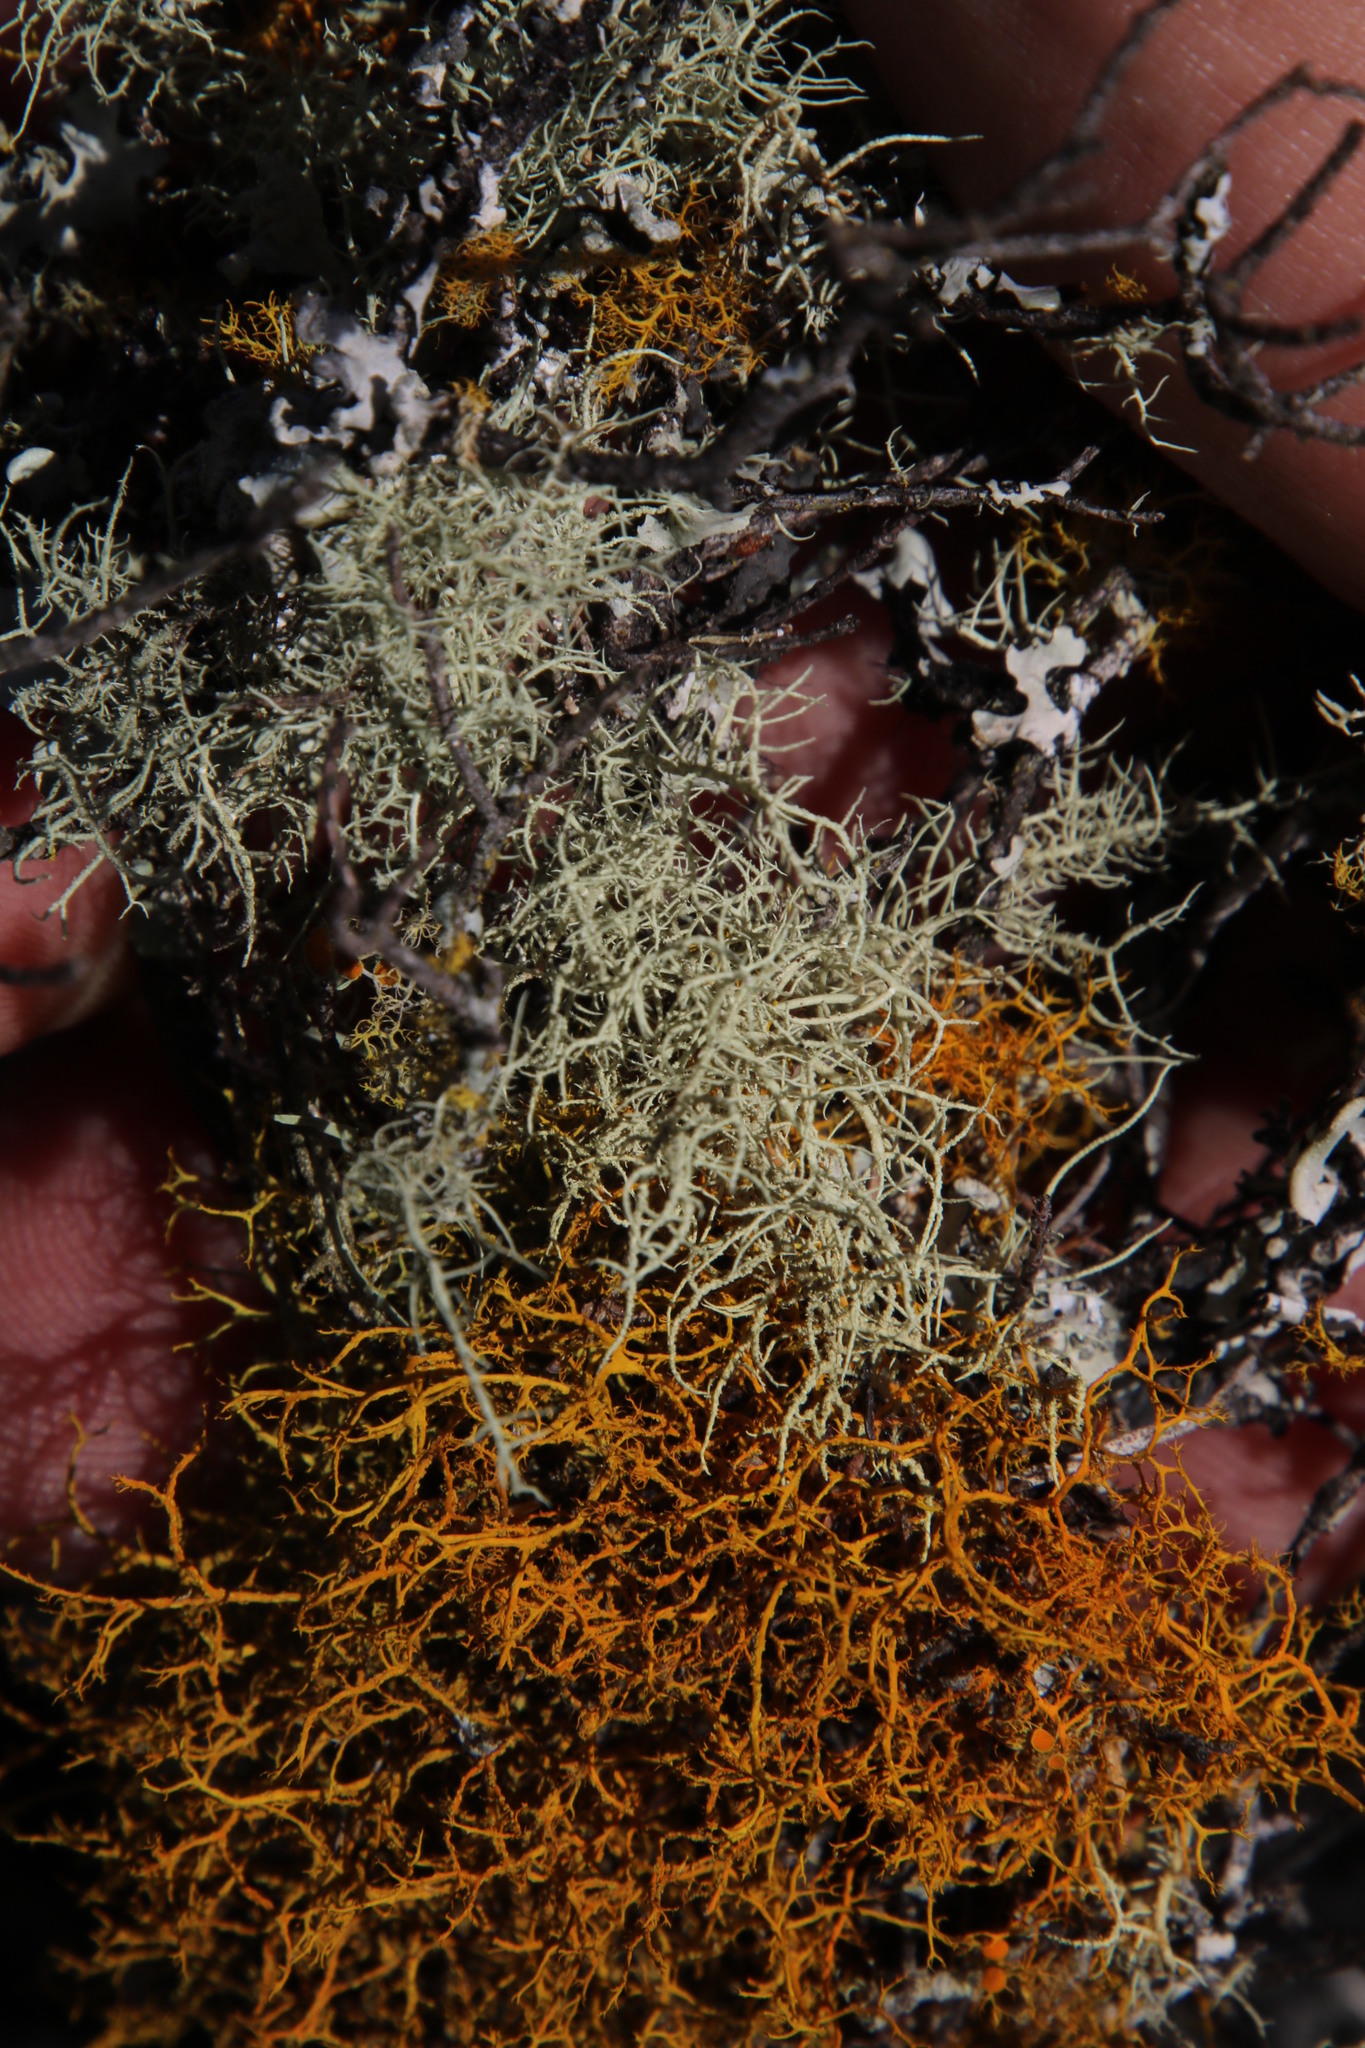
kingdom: Fungi
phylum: Ascomycota
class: Lecanoromycetes
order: Teloschistales
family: Teloschistaceae
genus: Teloschistes
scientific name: Teloschistes flavicans
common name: Golden hair-lichen
